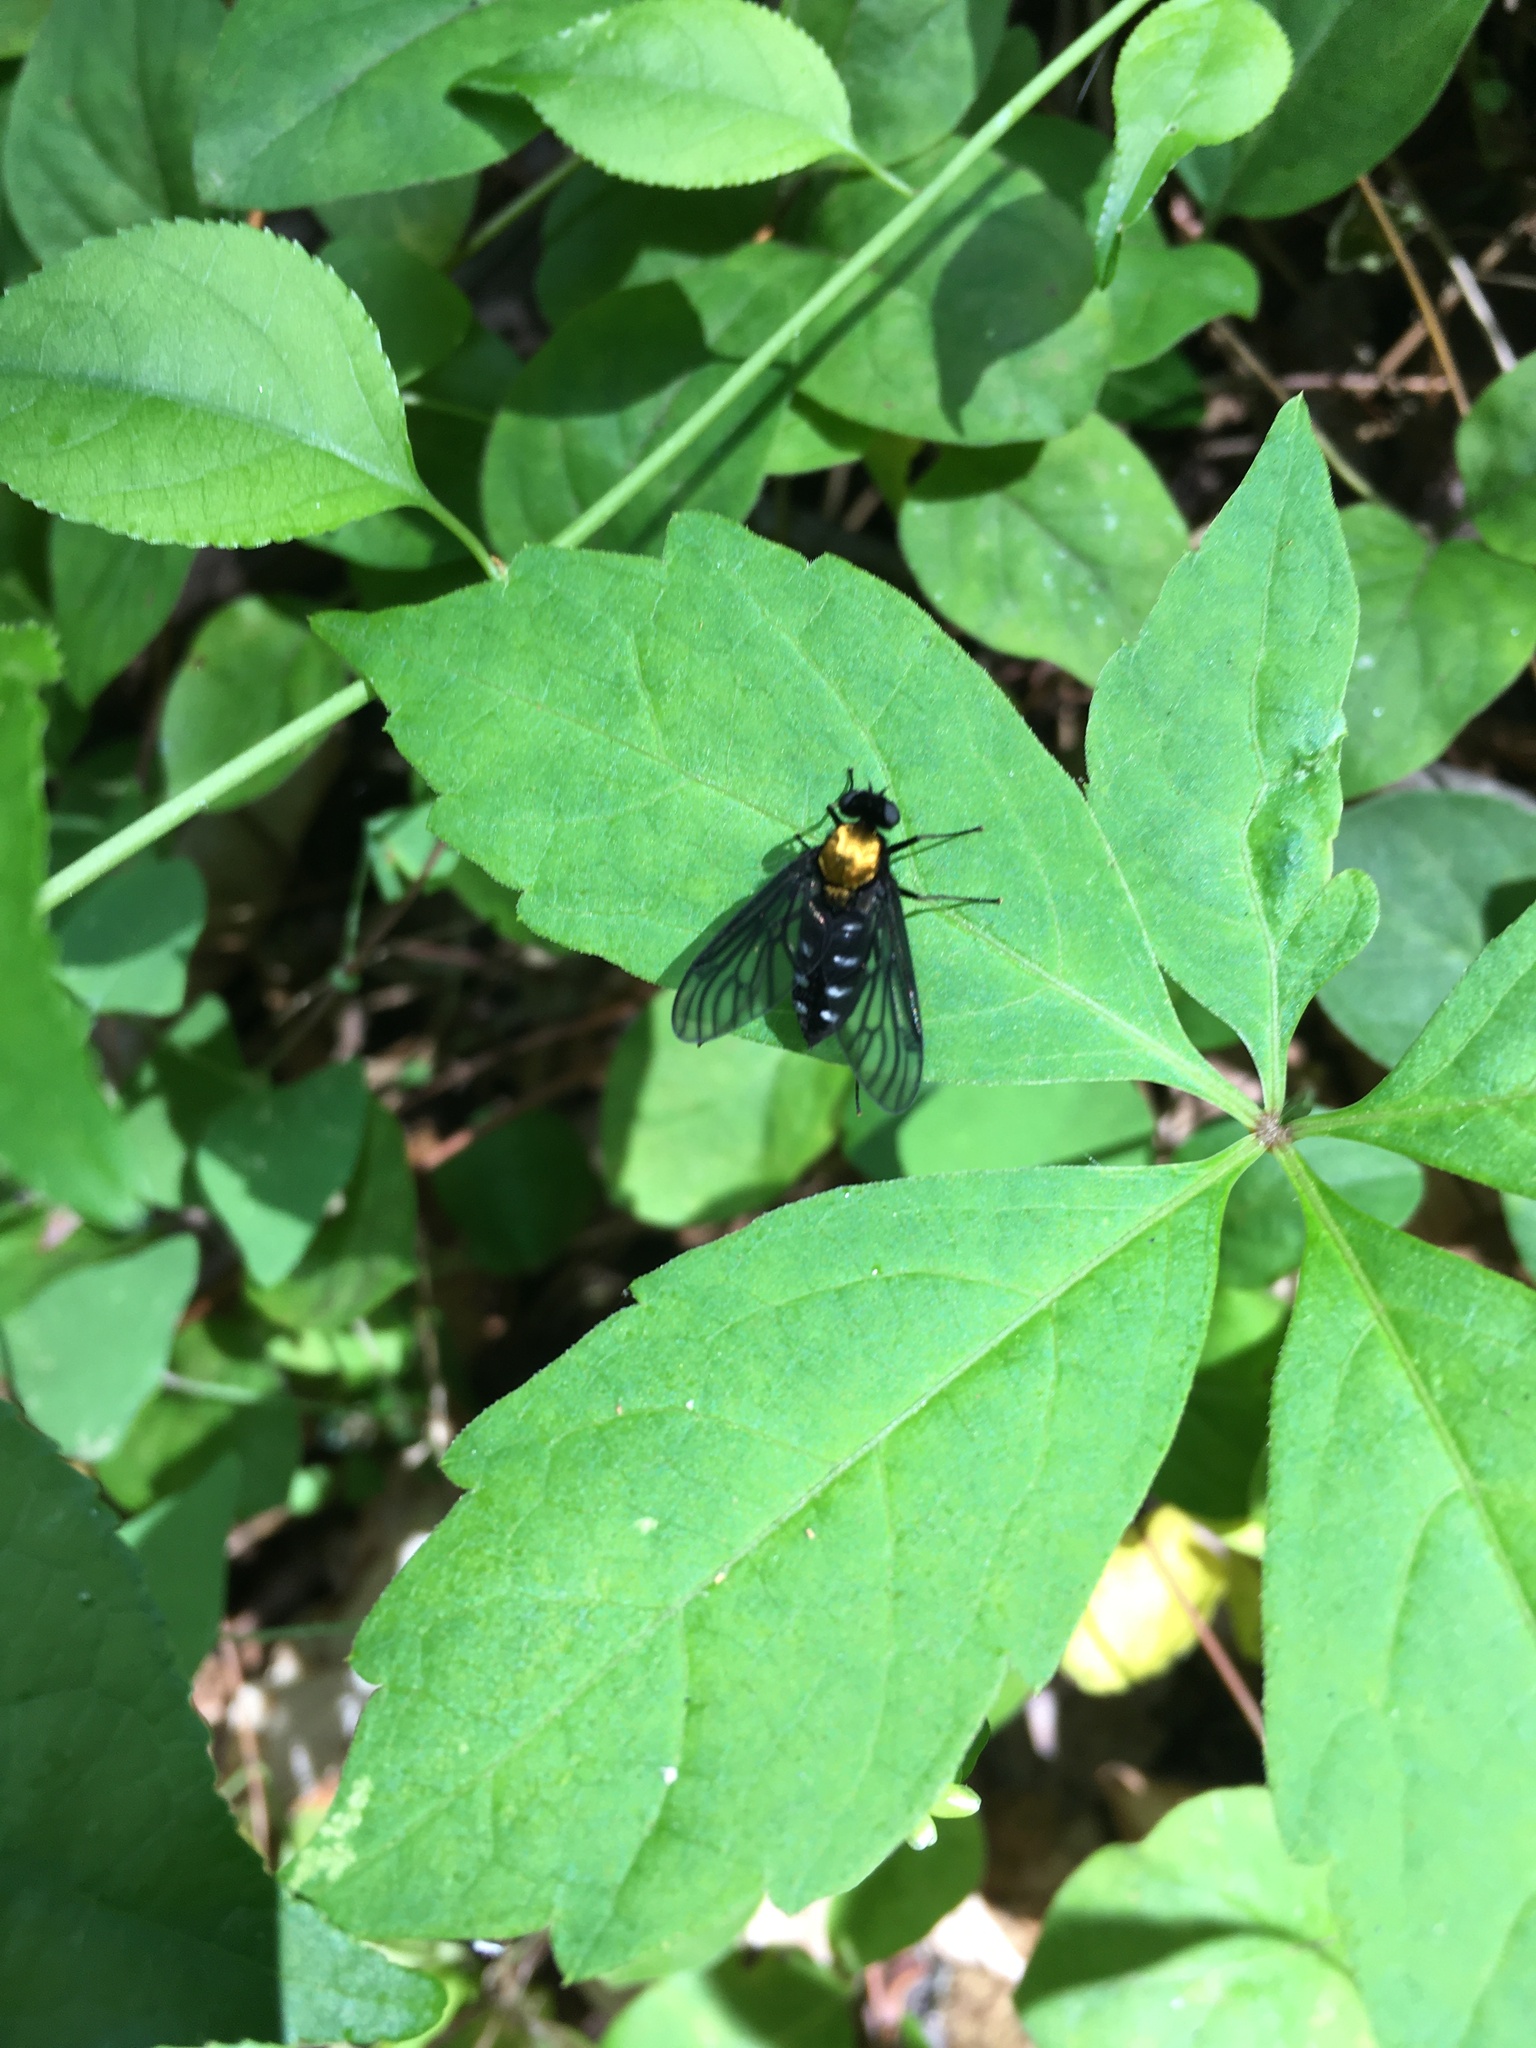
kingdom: Animalia
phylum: Arthropoda
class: Insecta
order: Diptera
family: Rhagionidae
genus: Chrysopilus
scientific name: Chrysopilus thoracicus
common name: Golden-backed snipe fly
